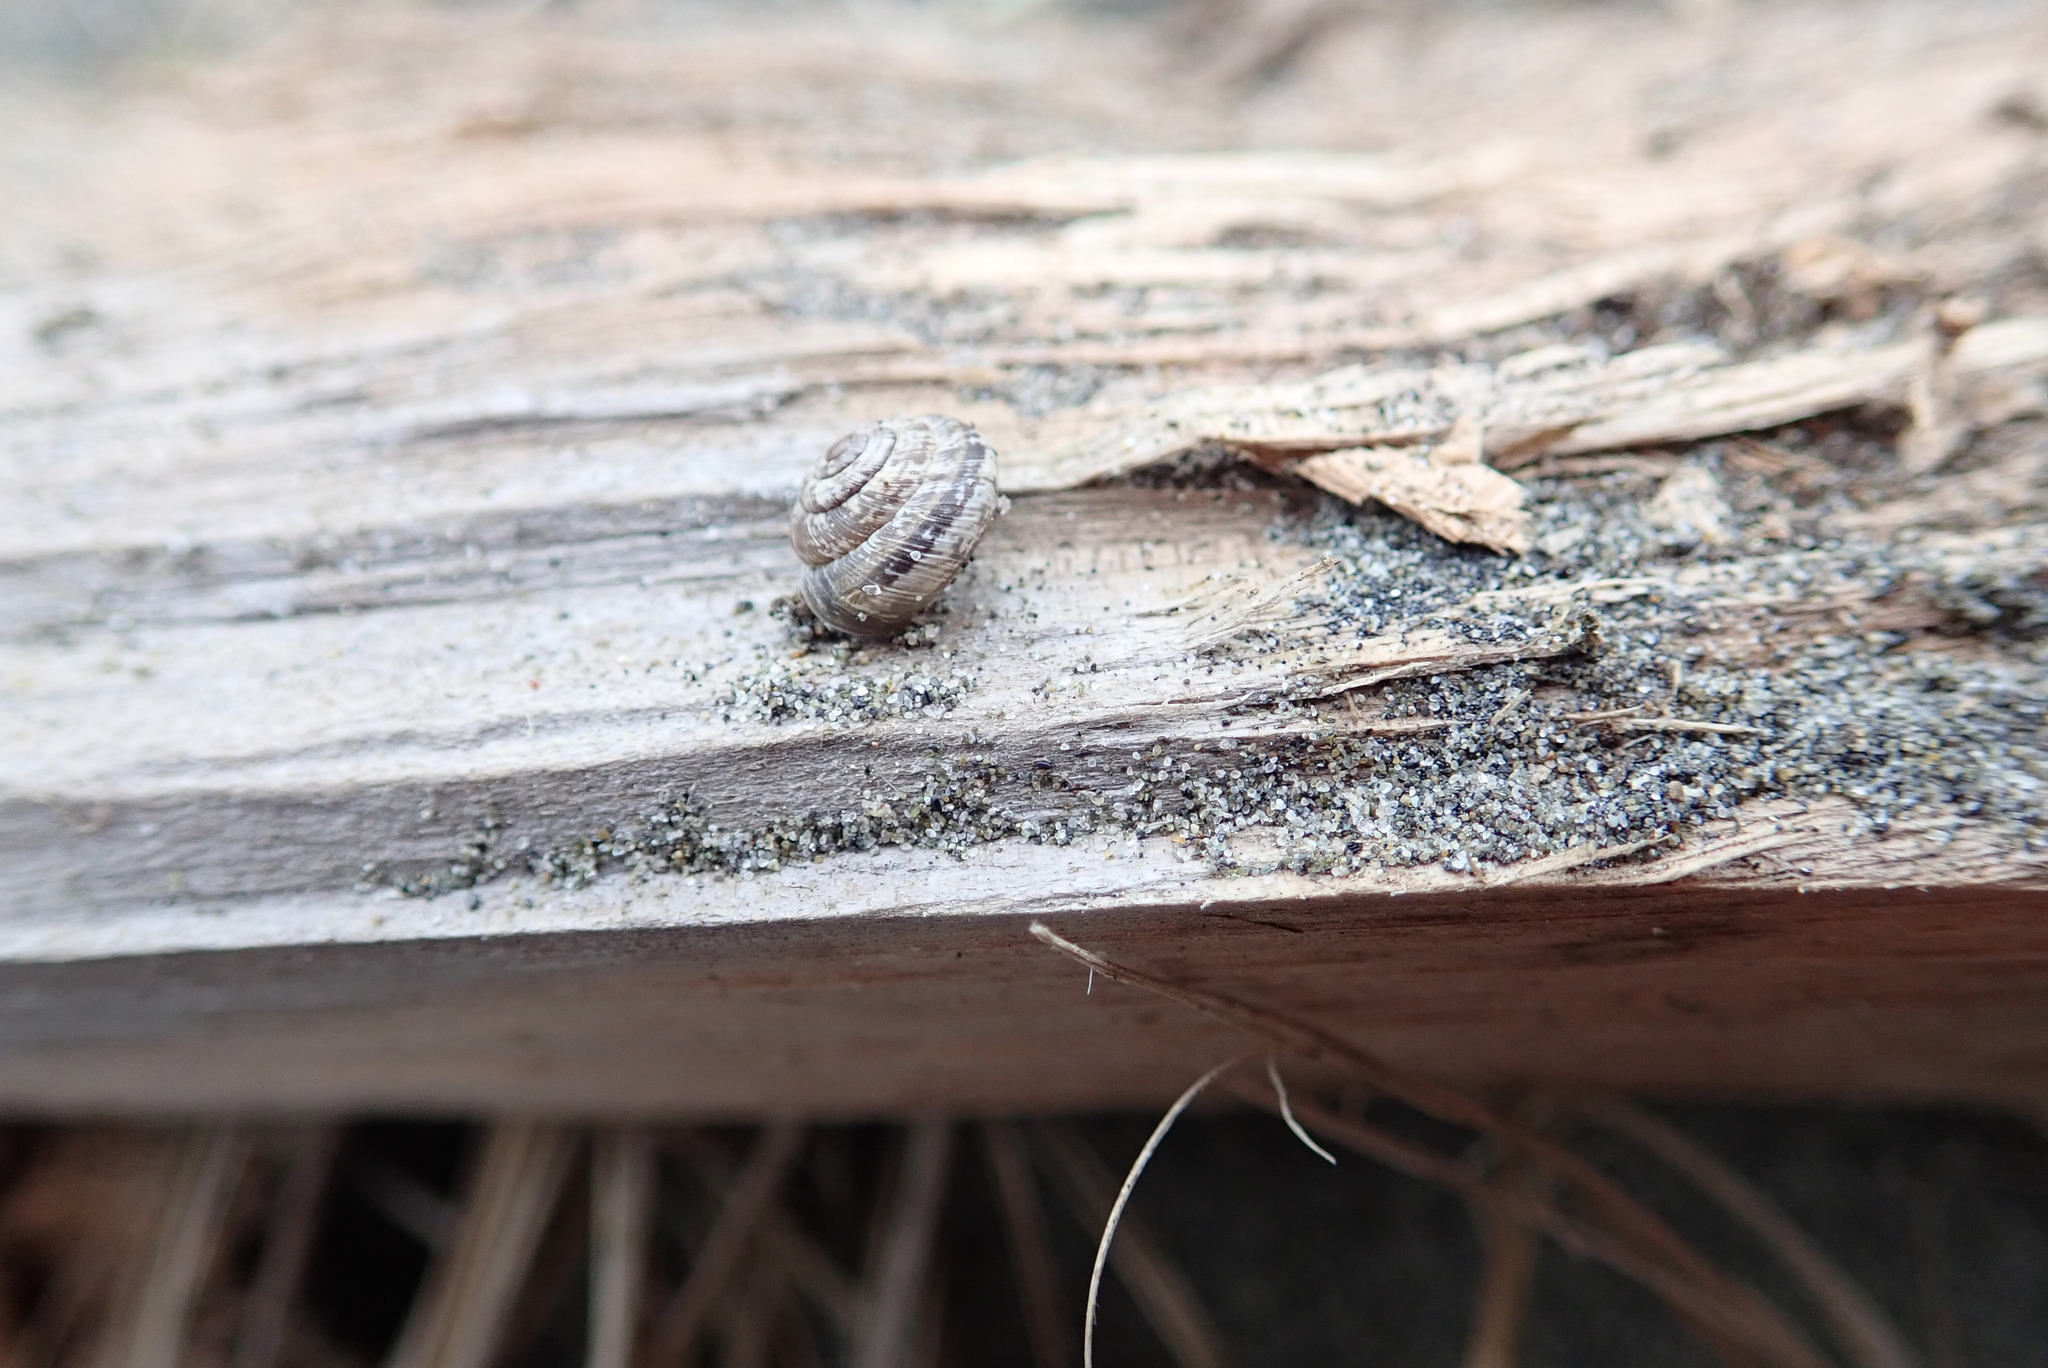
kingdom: Animalia
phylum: Mollusca
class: Gastropoda
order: Stylommatophora
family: Geomitridae
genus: Xeroplexa
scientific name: Xeroplexa intersecta
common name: Wrinkled snail
